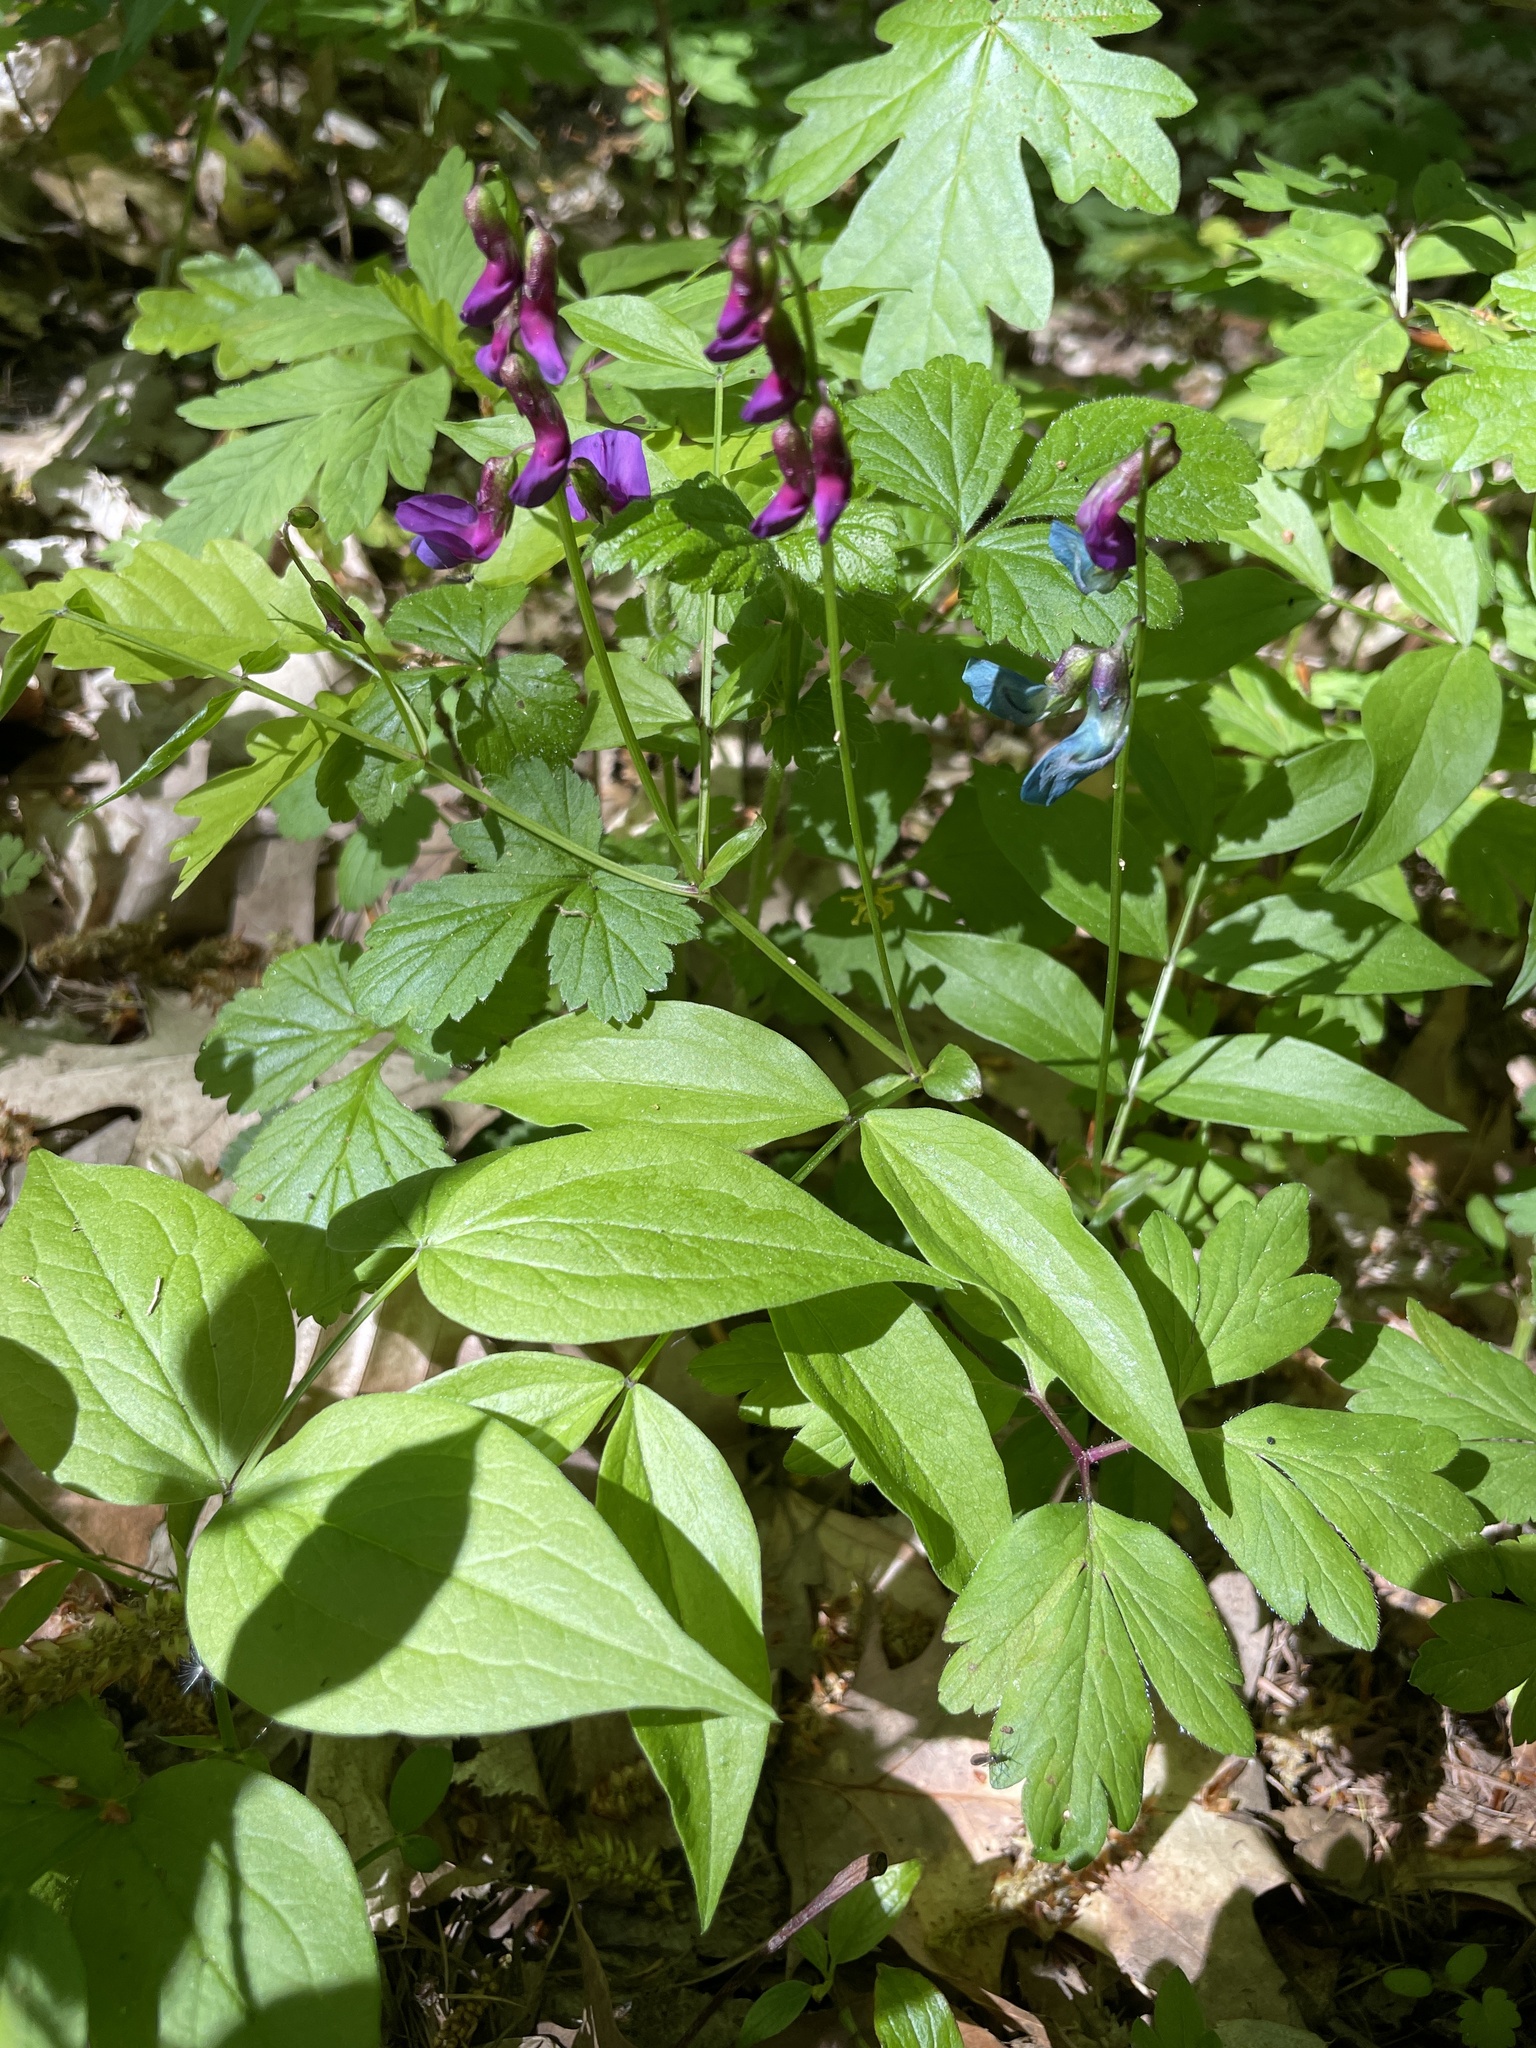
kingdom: Plantae
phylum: Tracheophyta
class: Magnoliopsida
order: Fabales
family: Fabaceae
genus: Lathyrus
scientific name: Lathyrus vernus
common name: Spring pea
